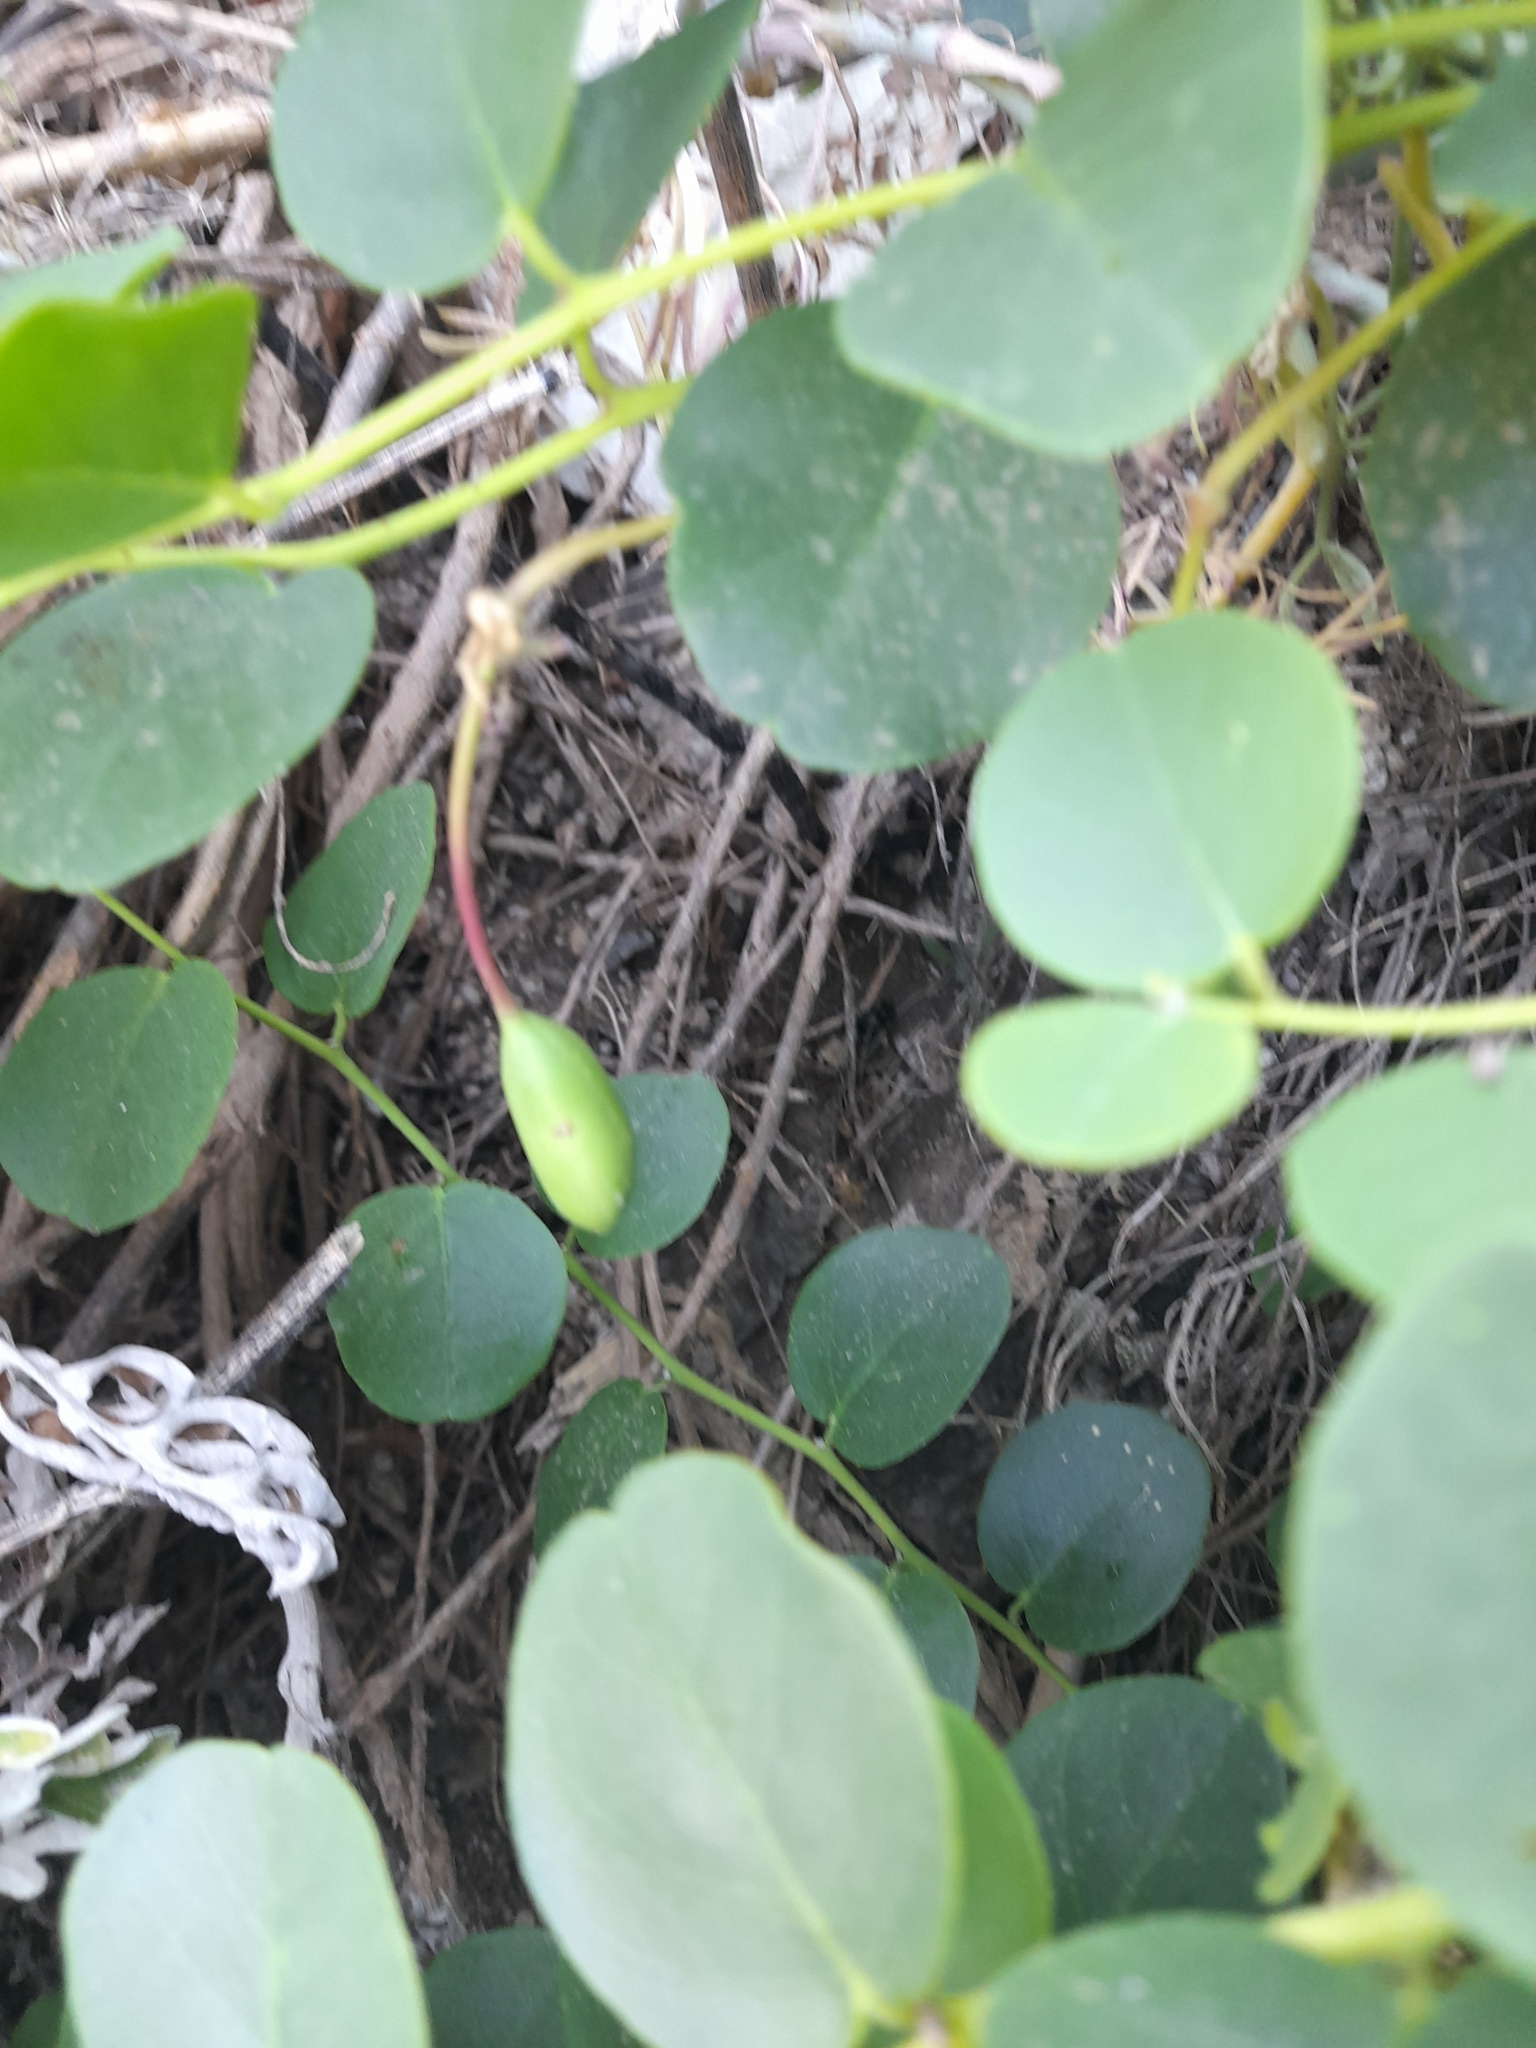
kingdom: Plantae
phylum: Tracheophyta
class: Magnoliopsida
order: Brassicales
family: Capparaceae
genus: Capparis
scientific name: Capparis orientalis
